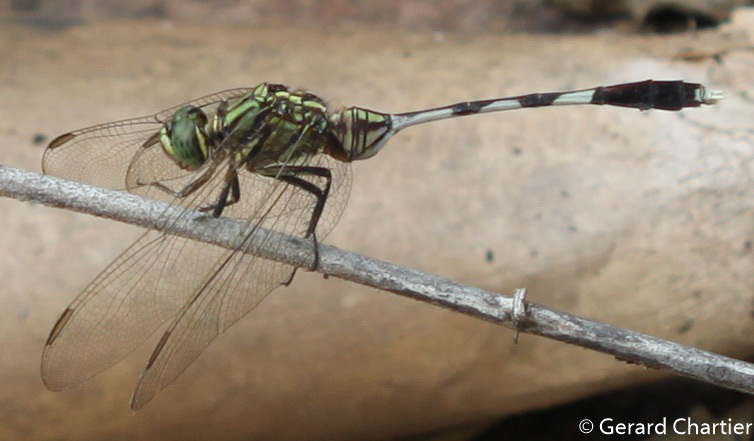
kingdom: Animalia
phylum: Arthropoda
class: Insecta
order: Odonata
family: Libellulidae
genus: Orthetrum
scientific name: Orthetrum sabina
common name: Slender skimmer
